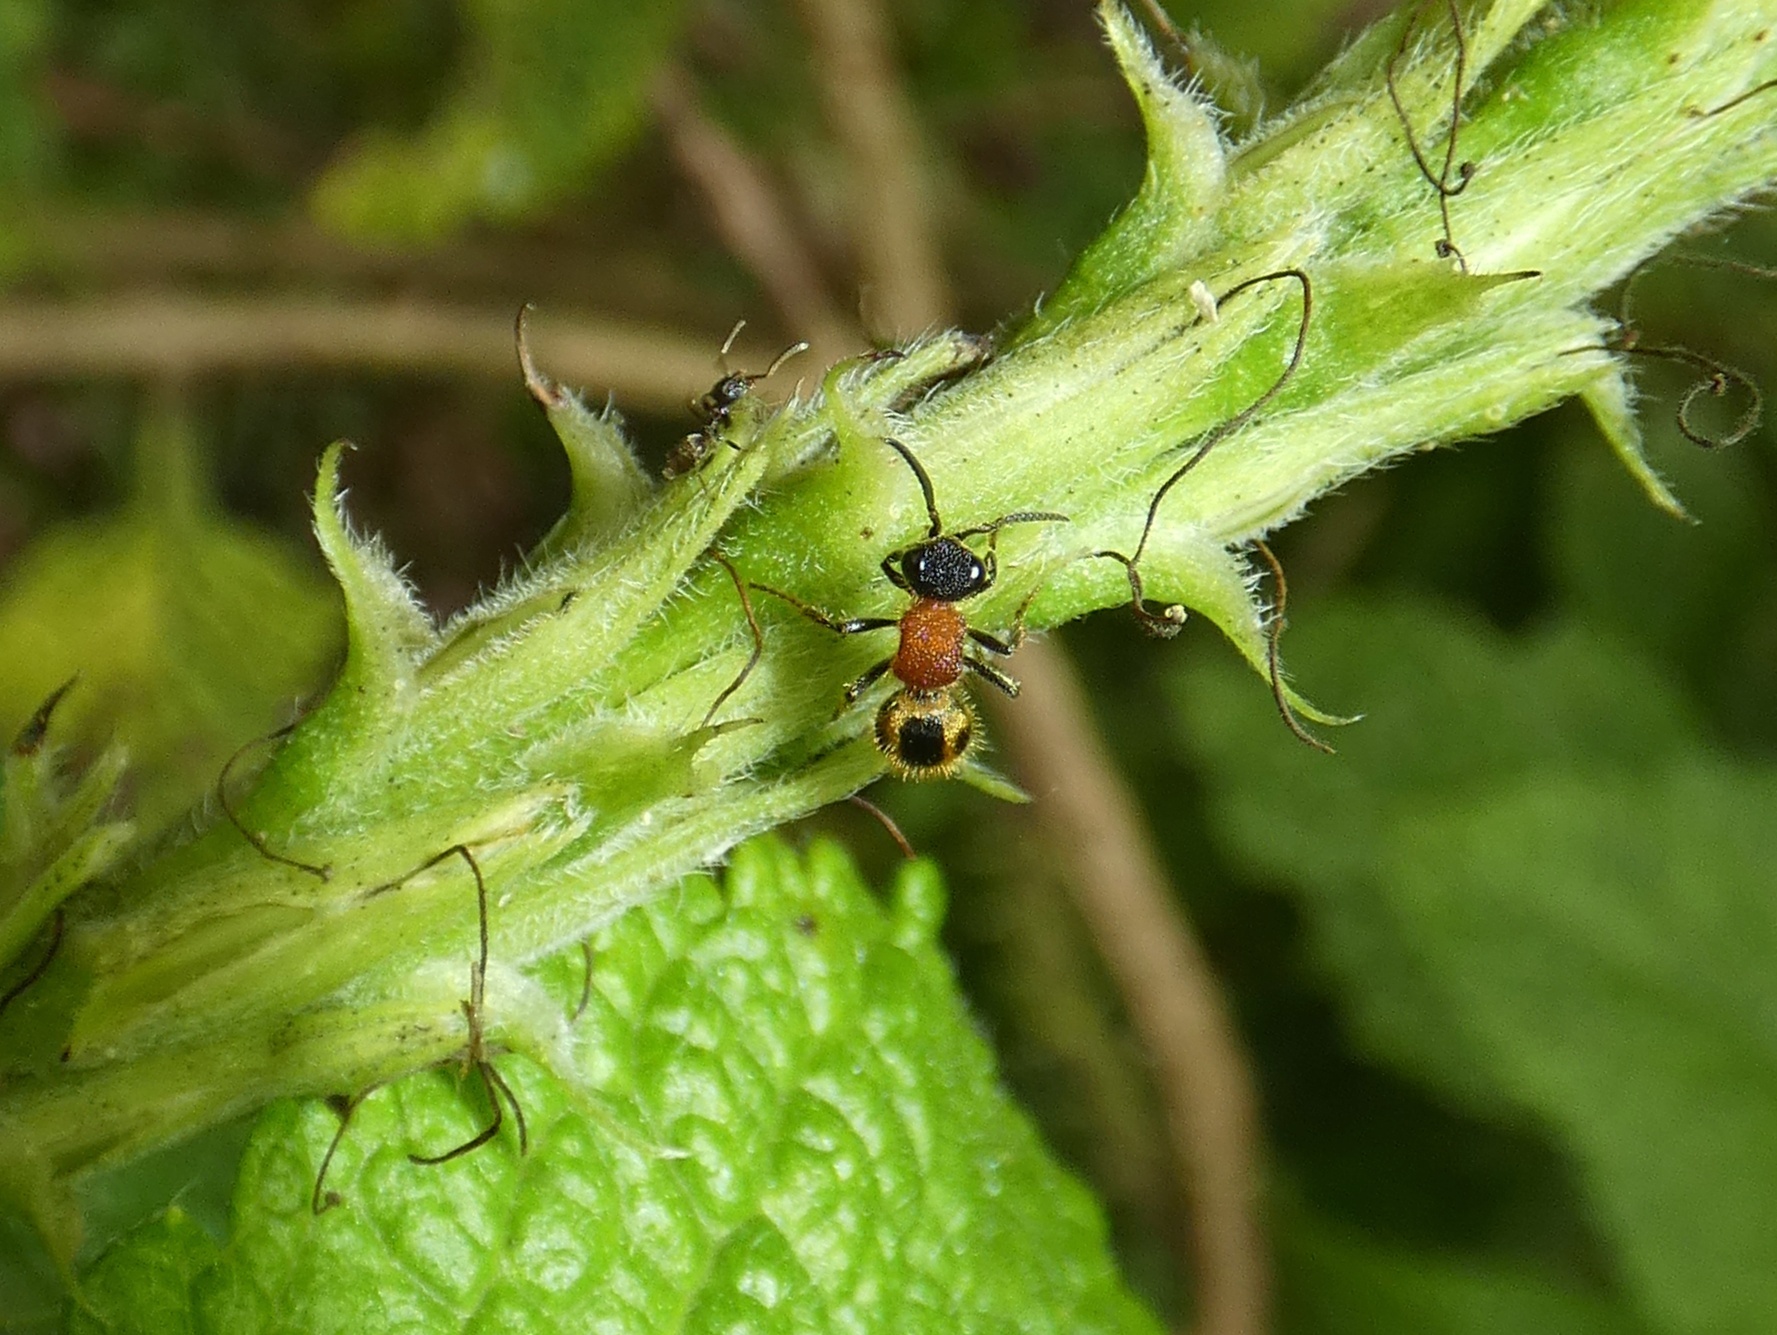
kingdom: Animalia
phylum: Arthropoda
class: Insecta
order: Hymenoptera
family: Mutillidae
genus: Timulla
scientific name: Timulla
